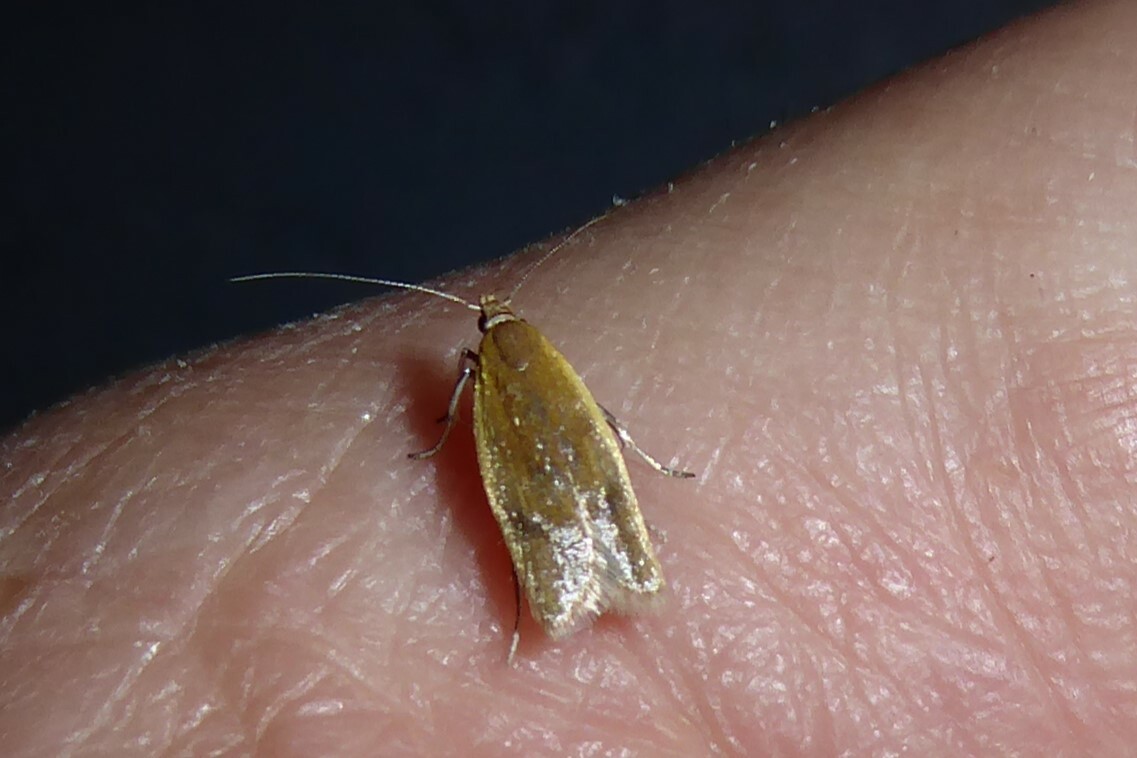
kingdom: Animalia
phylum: Arthropoda
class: Insecta
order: Lepidoptera
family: Oecophoridae
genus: Gymnobathra
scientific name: Gymnobathra parca
